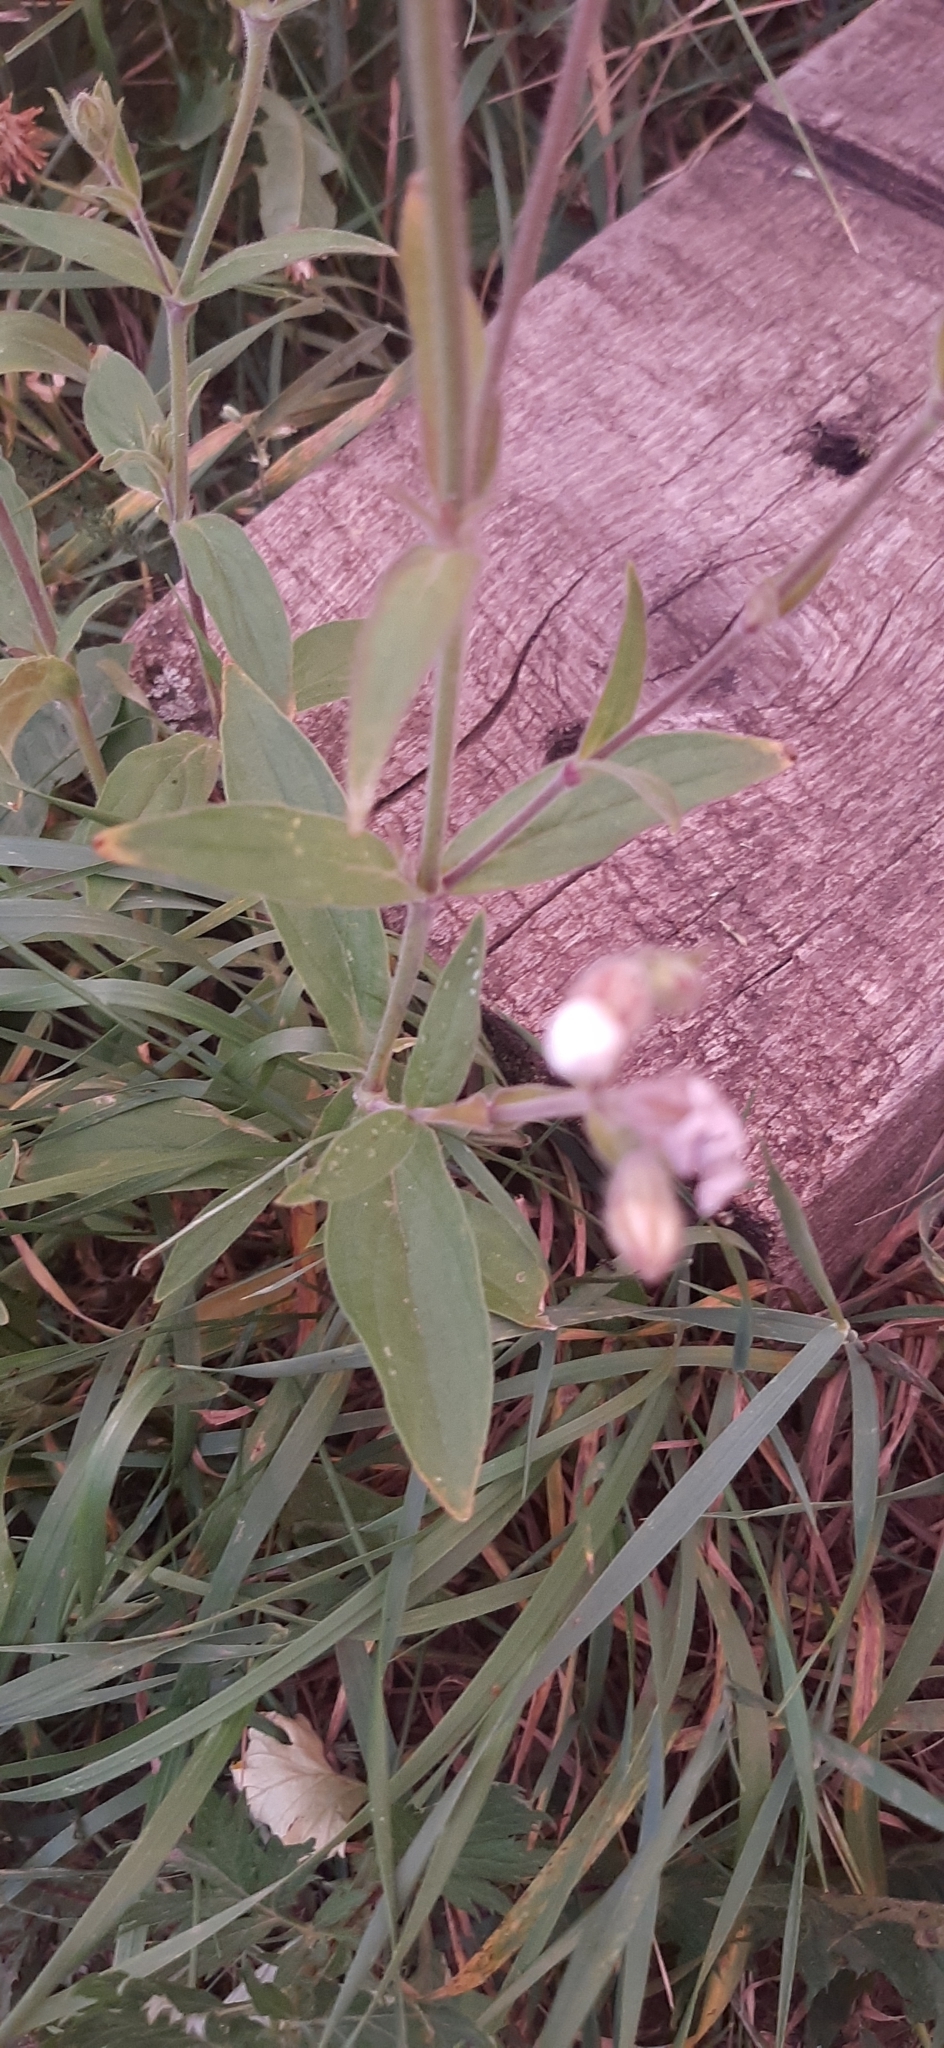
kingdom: Plantae
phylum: Tracheophyta
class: Magnoliopsida
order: Caryophyllales
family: Caryophyllaceae
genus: Silene
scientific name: Silene latifolia
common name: White campion
